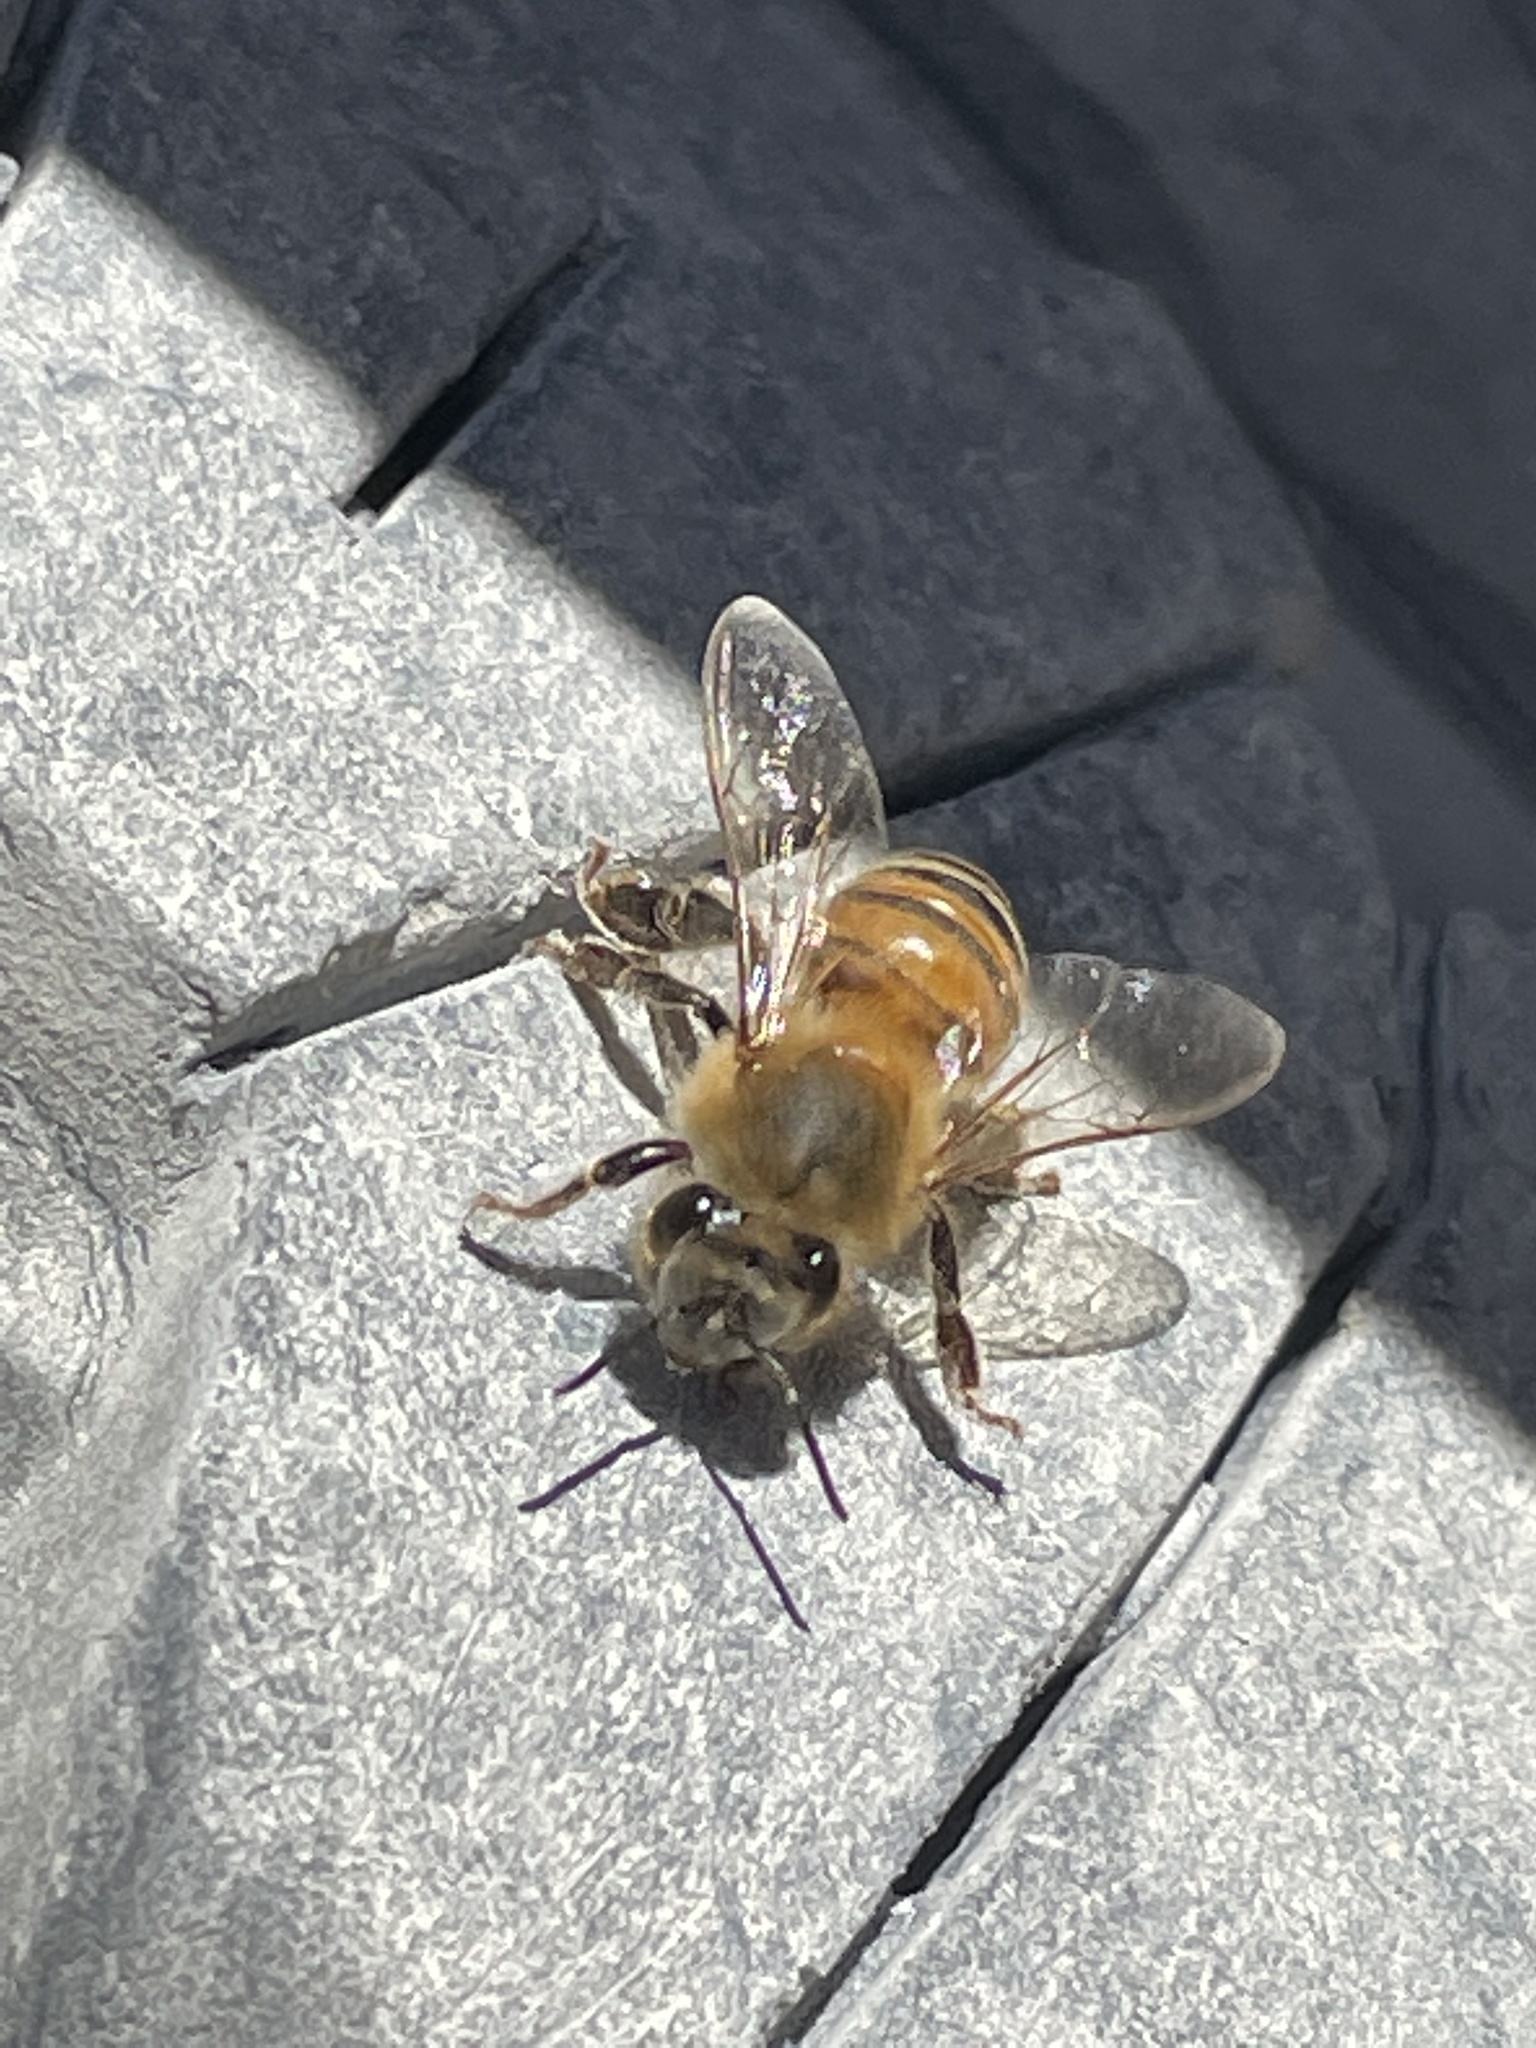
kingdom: Animalia
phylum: Arthropoda
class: Insecta
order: Hymenoptera
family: Apidae
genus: Apis
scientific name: Apis mellifera
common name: Honey bee
